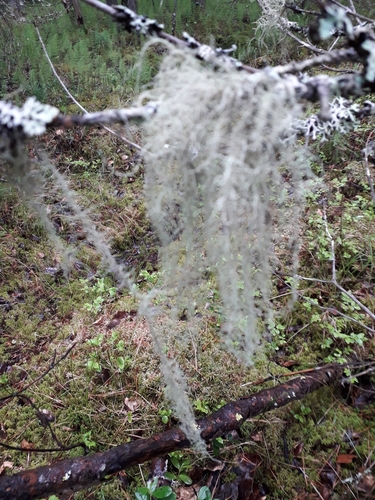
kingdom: Fungi
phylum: Ascomycota
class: Lecanoromycetes
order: Lecanorales
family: Parmeliaceae
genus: Usnea
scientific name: Usnea
